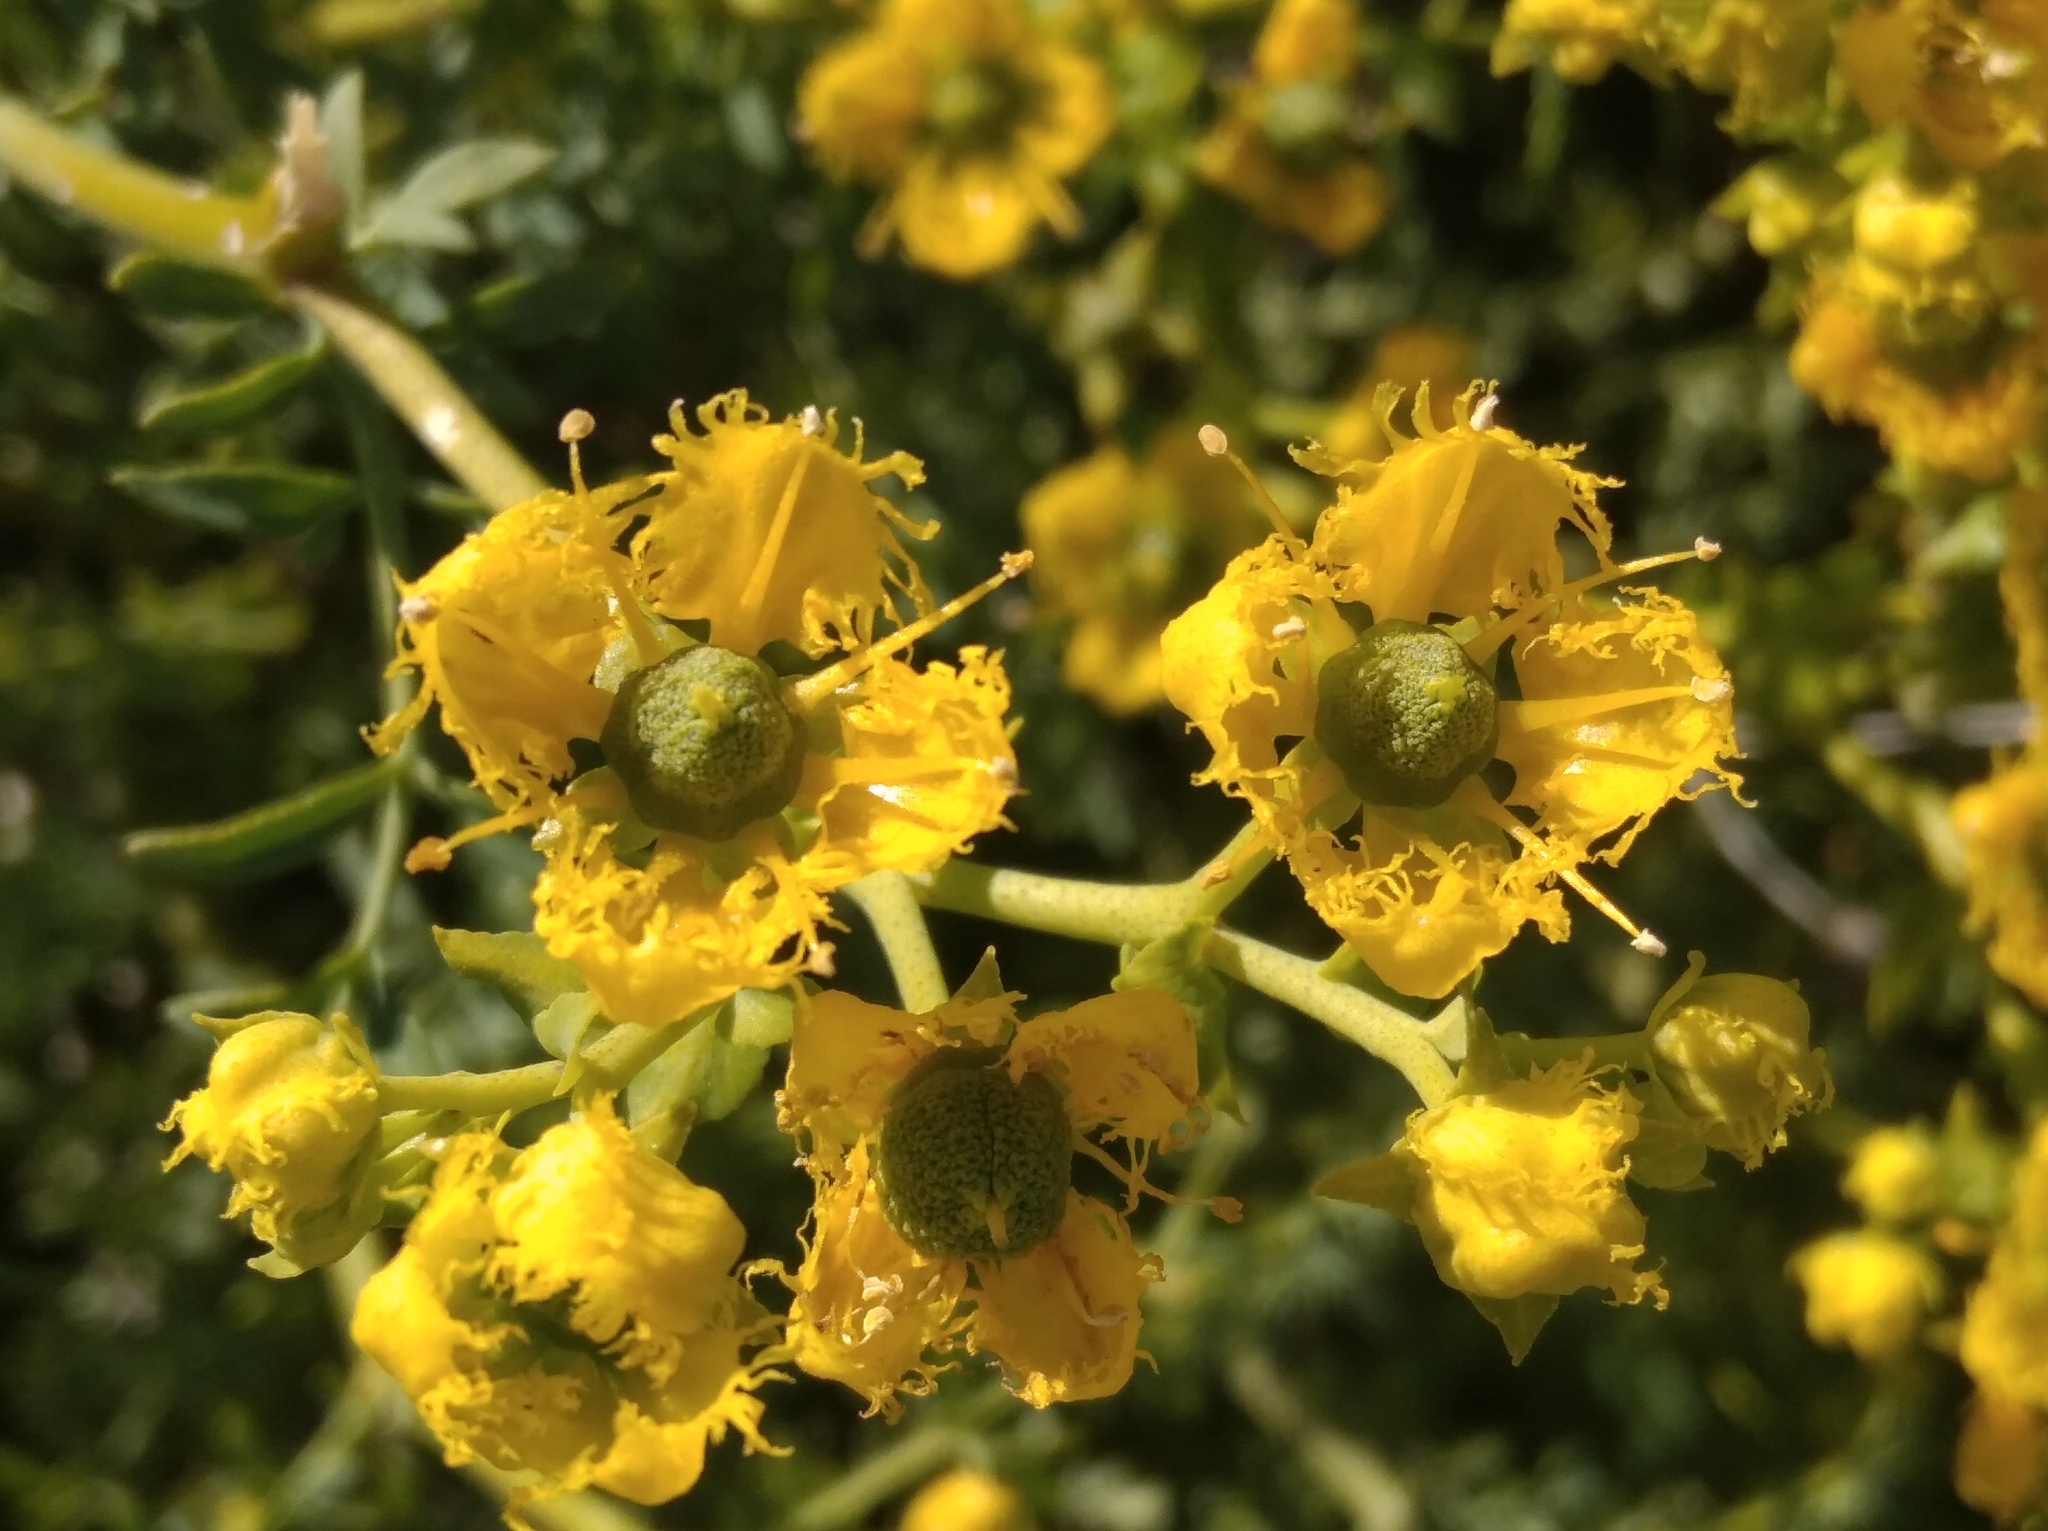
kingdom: Plantae
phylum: Tracheophyta
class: Magnoliopsida
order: Sapindales
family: Rutaceae
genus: Ruta
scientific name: Ruta chalepensis
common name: Fringed rue
